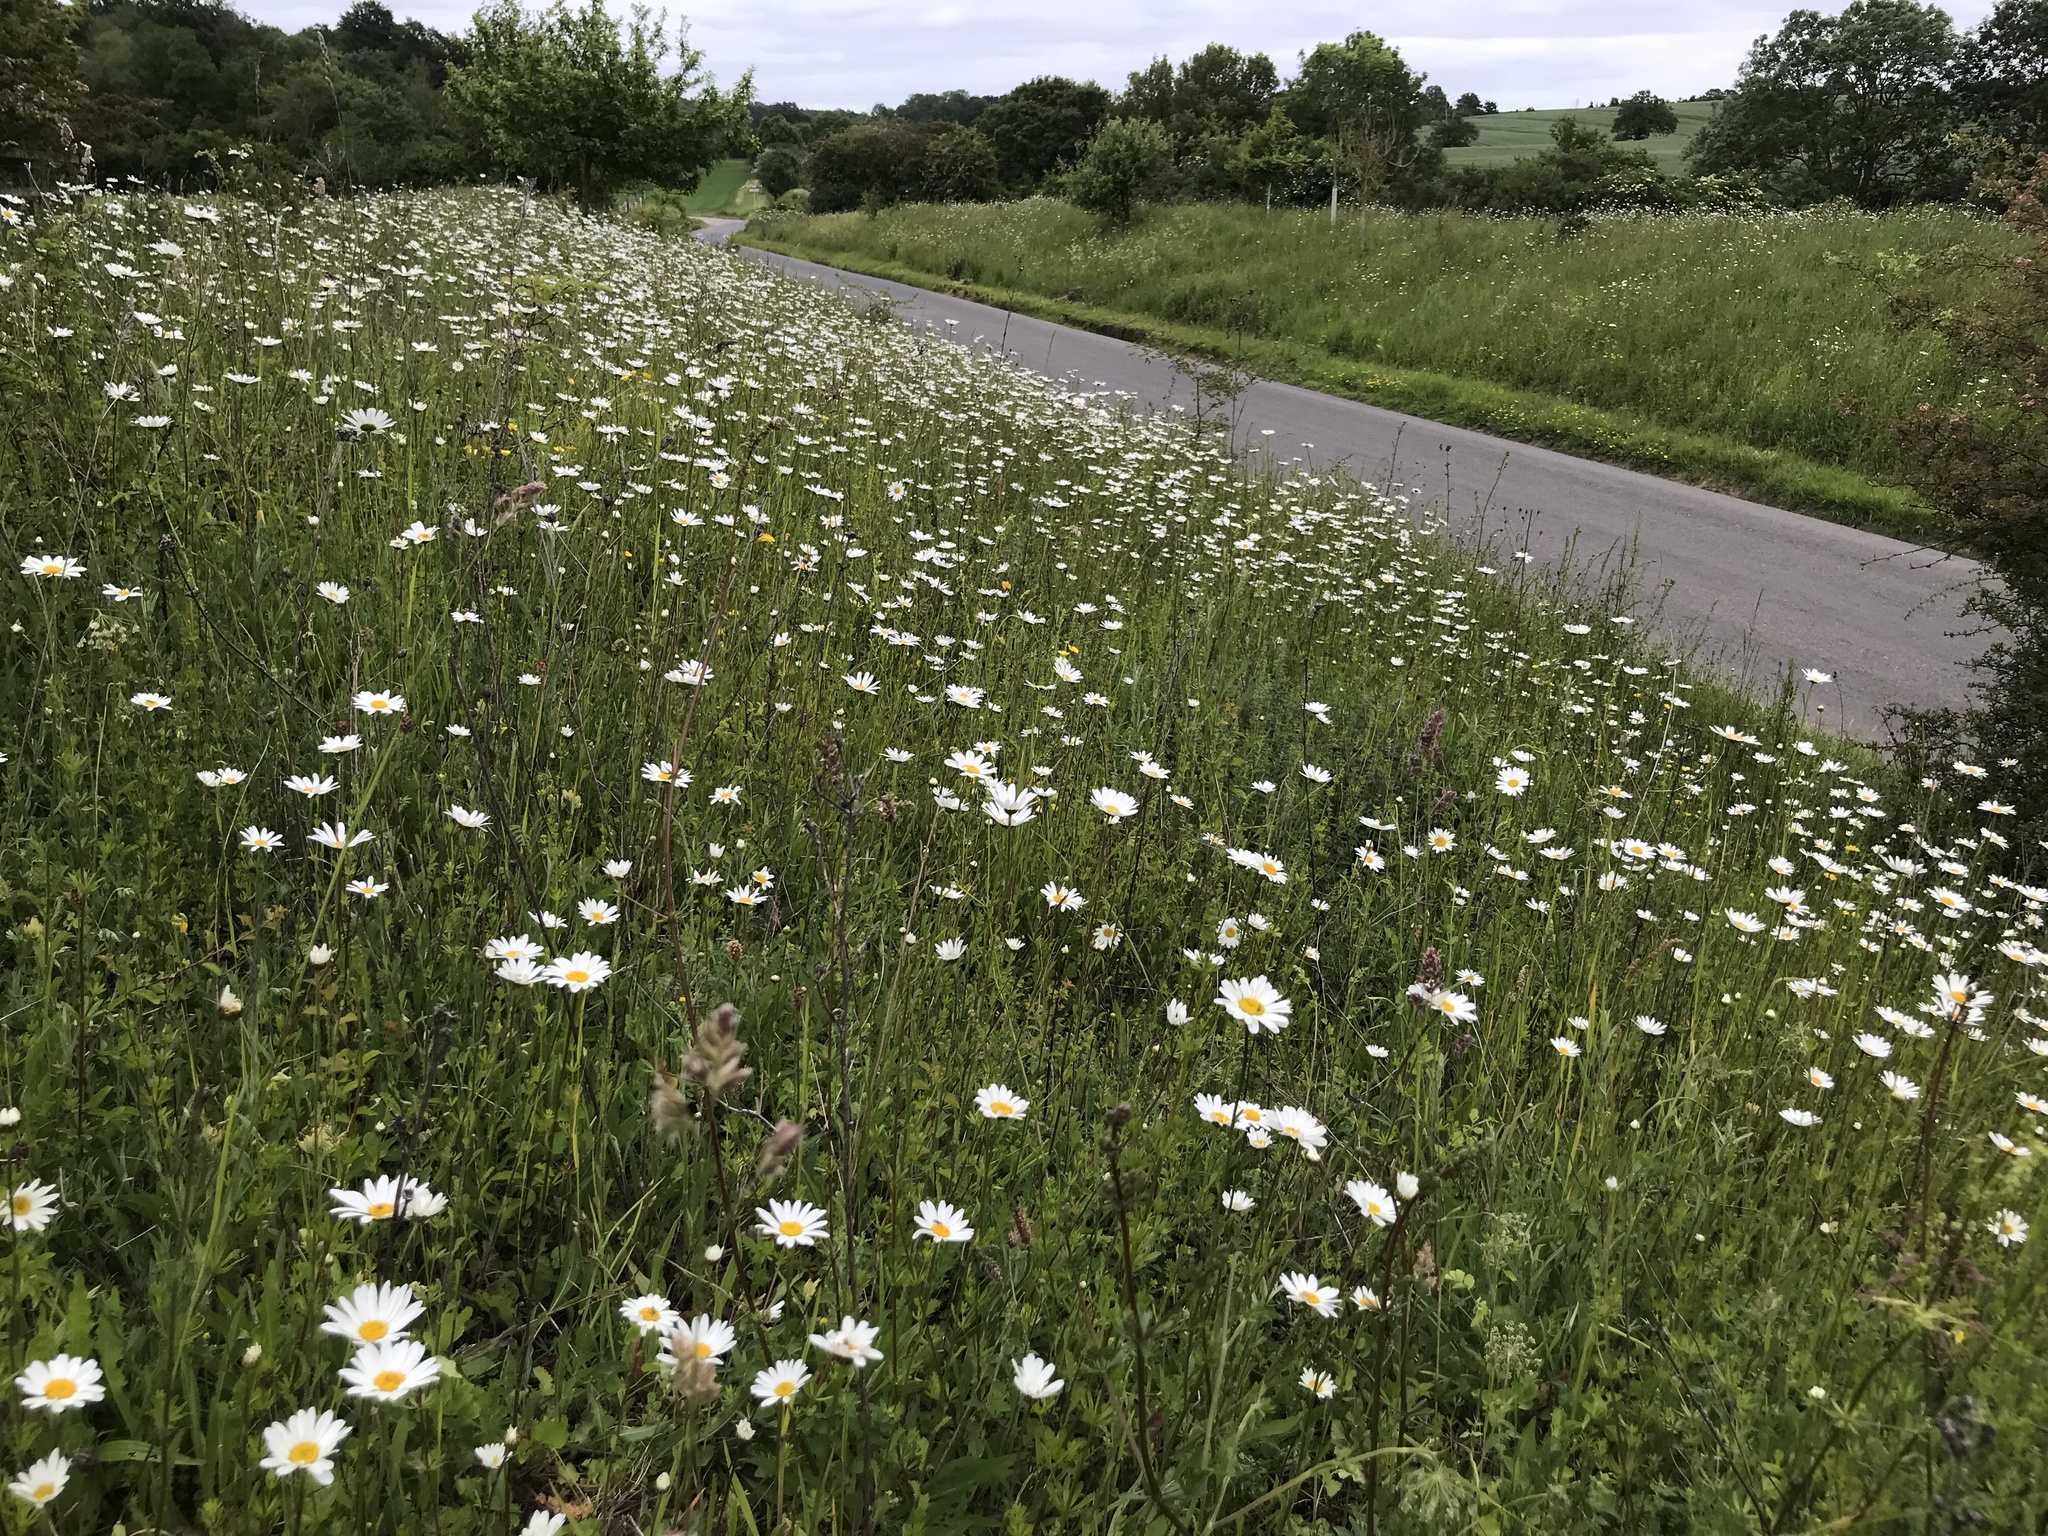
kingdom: Plantae
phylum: Tracheophyta
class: Magnoliopsida
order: Asterales
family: Asteraceae
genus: Leucanthemum
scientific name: Leucanthemum vulgare
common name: Oxeye daisy
